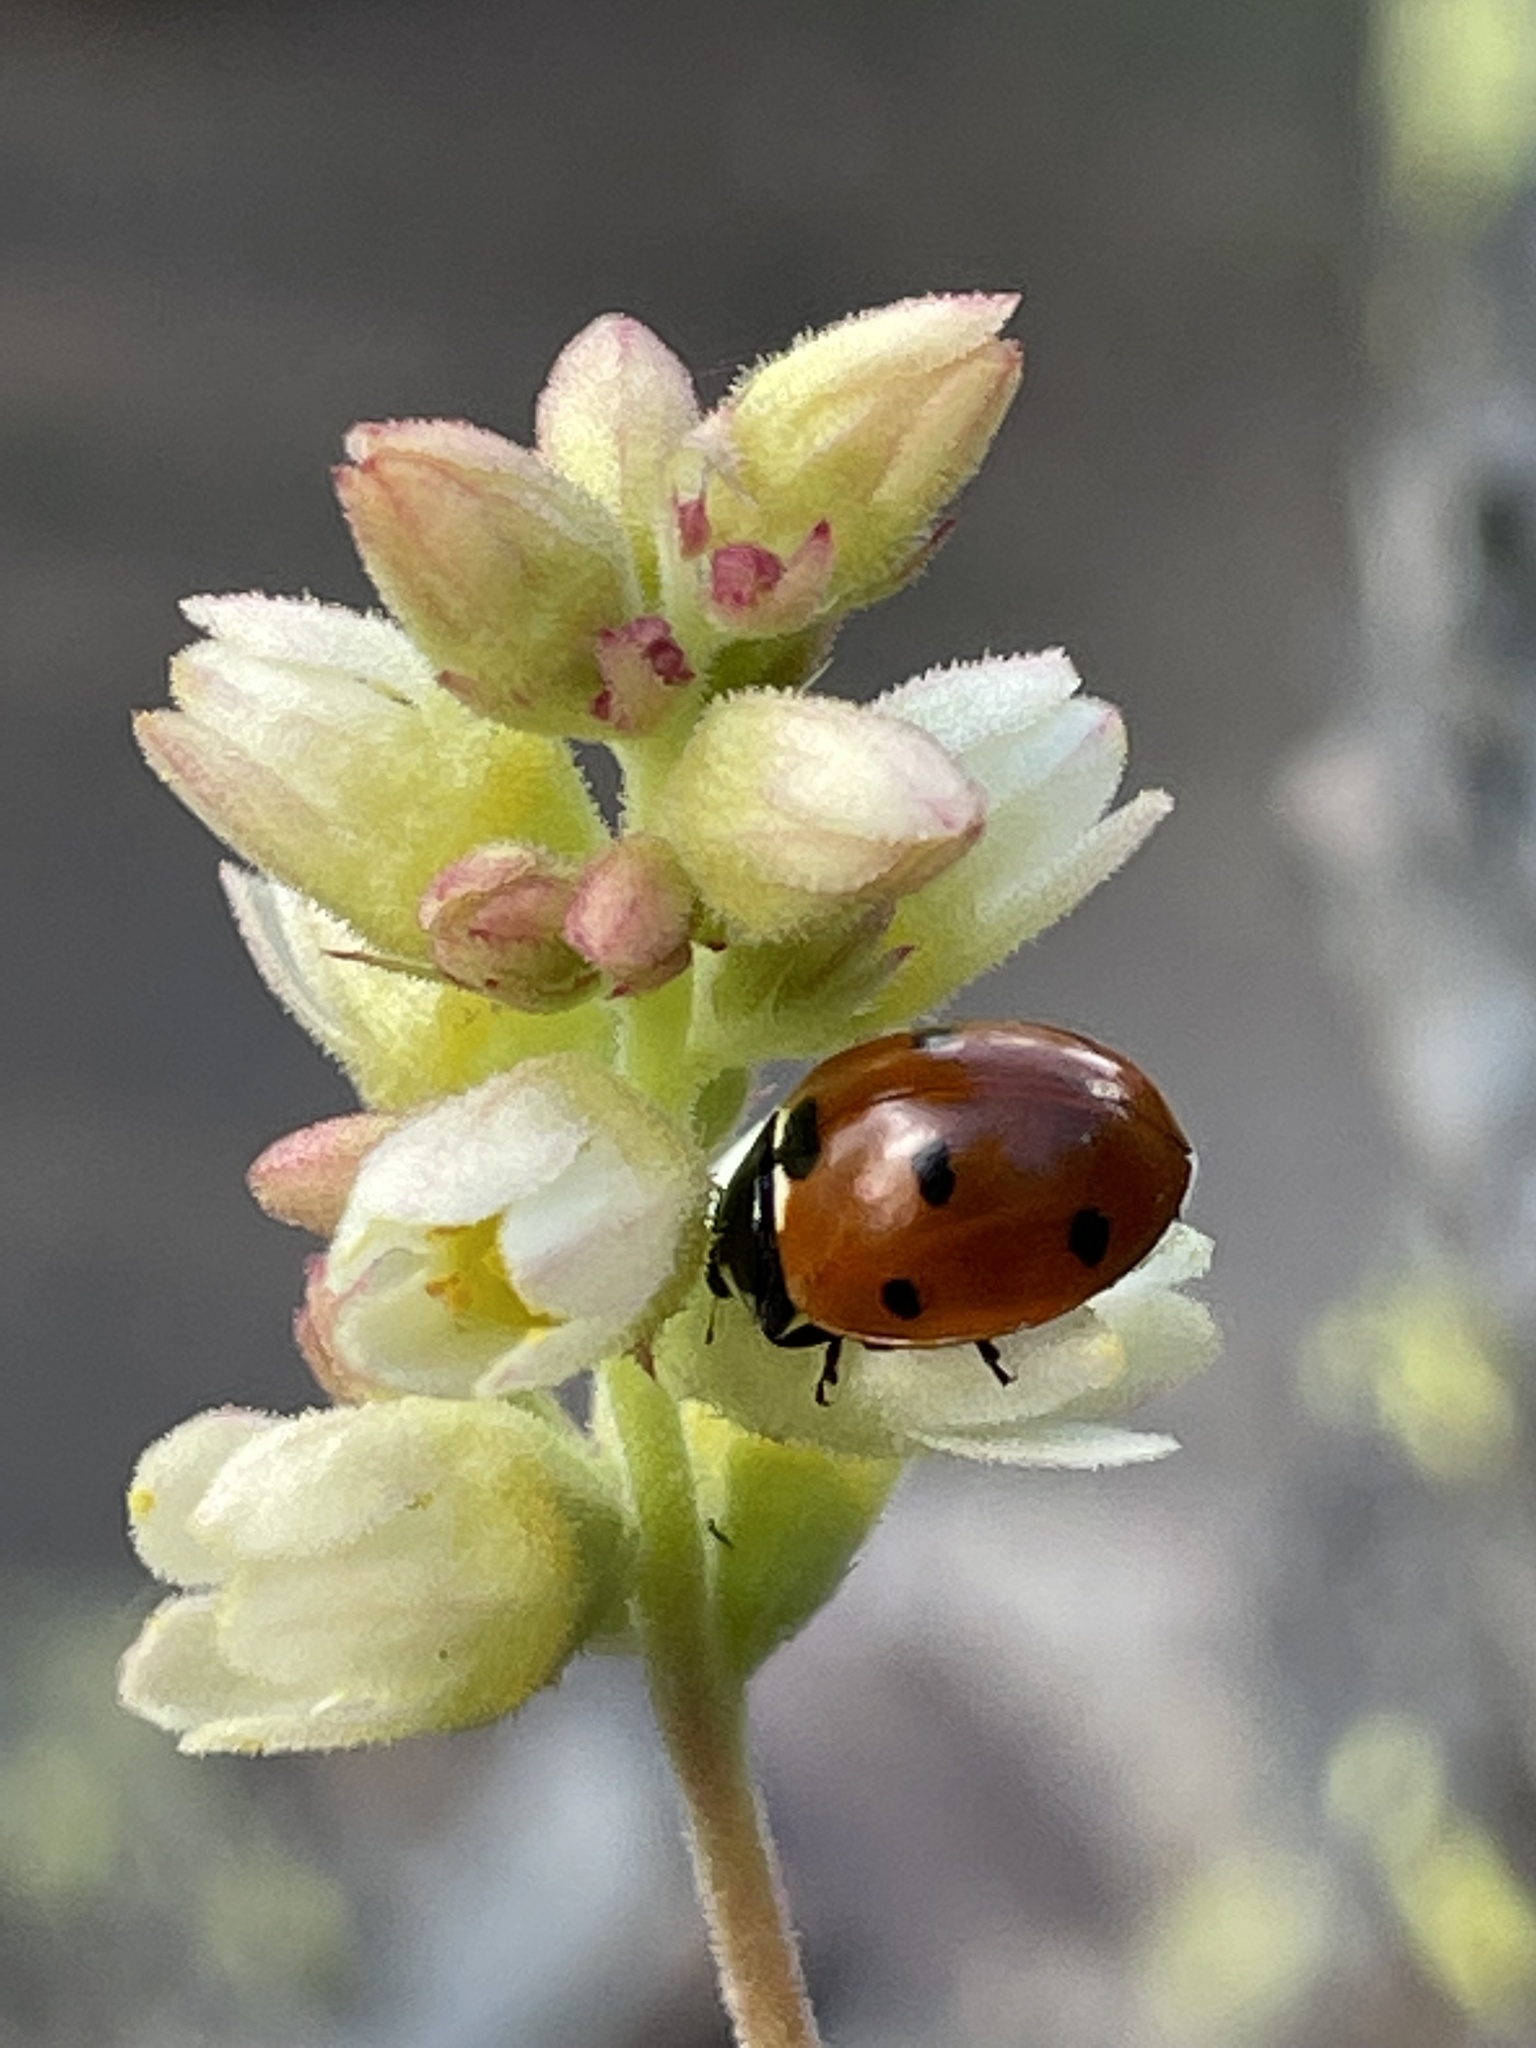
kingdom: Animalia
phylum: Arthropoda
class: Insecta
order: Coleoptera
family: Coccinellidae
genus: Coccinella
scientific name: Coccinella septempunctata
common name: Sevenspotted lady beetle
